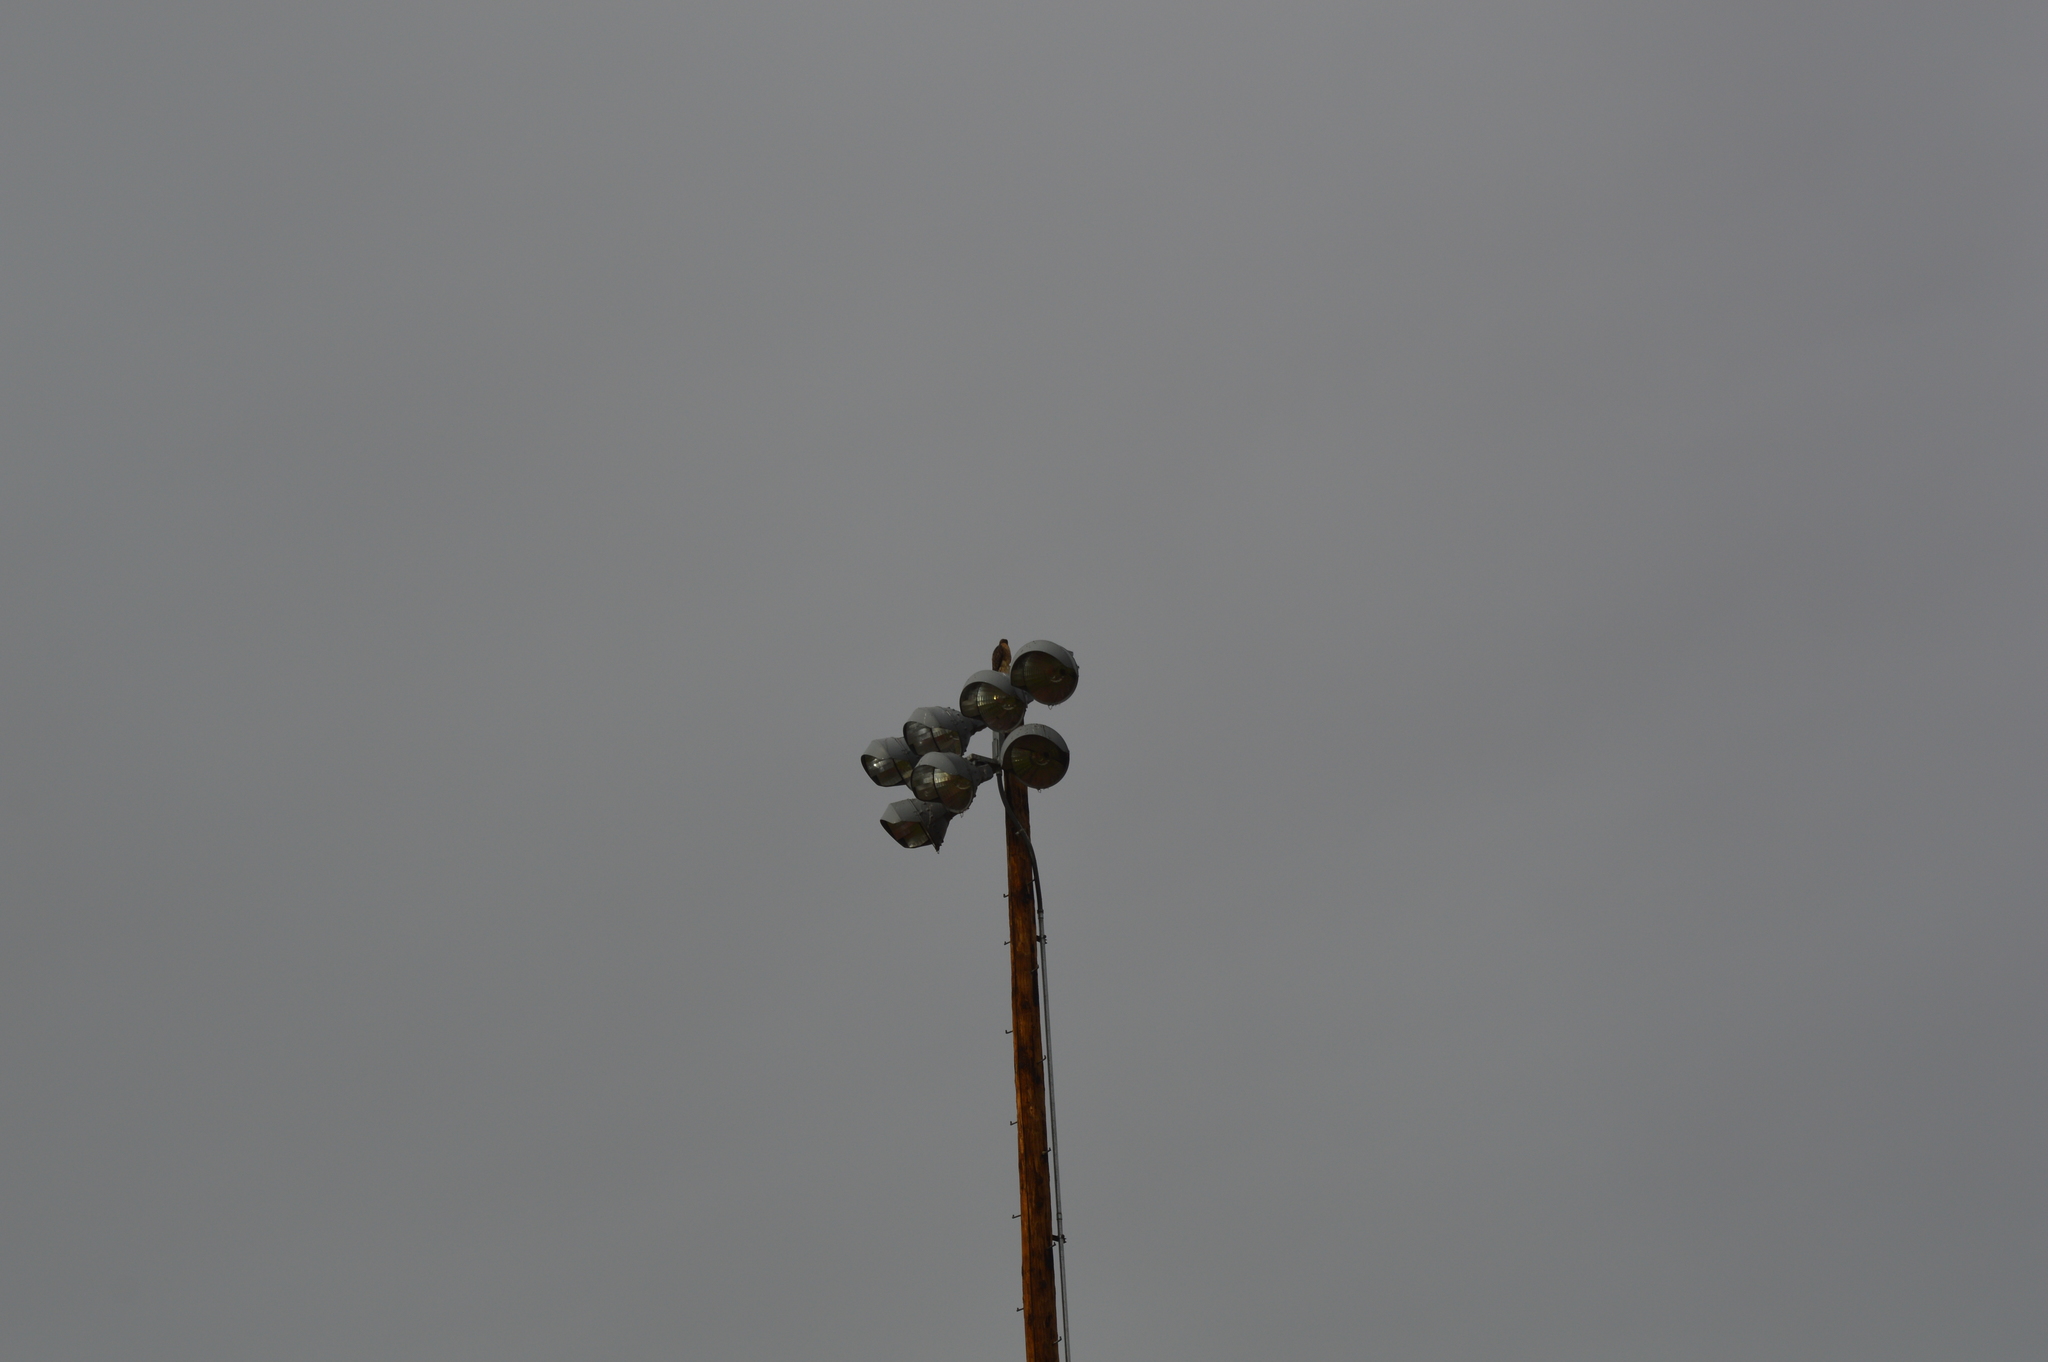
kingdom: Animalia
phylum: Chordata
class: Aves
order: Accipitriformes
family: Accipitridae
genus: Buteo
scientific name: Buteo jamaicensis
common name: Red-tailed hawk
